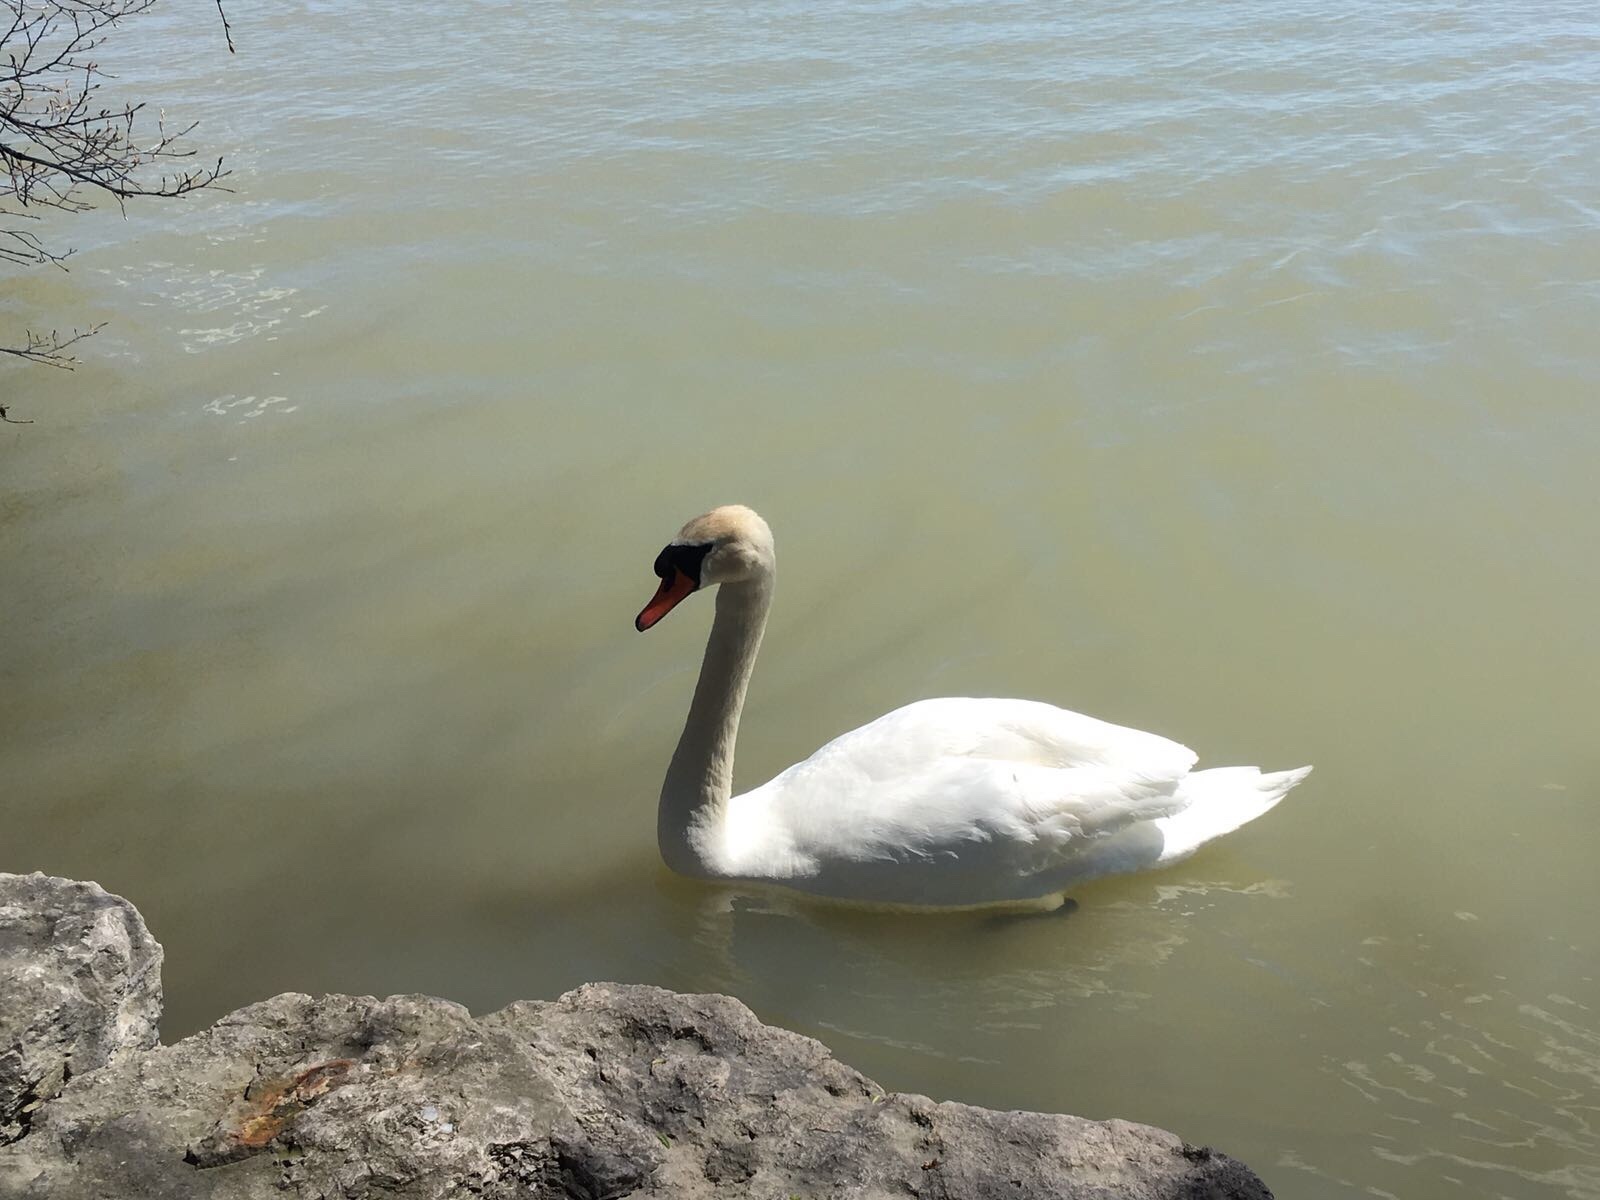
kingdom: Animalia
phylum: Chordata
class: Aves
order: Anseriformes
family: Anatidae
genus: Cygnus
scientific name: Cygnus olor
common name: Mute swan
